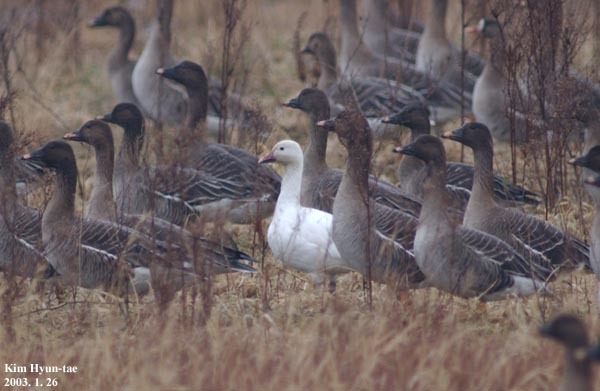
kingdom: Animalia
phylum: Chordata
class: Aves
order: Anseriformes
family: Anatidae
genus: Anser
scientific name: Anser caerulescens
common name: Snow goose
